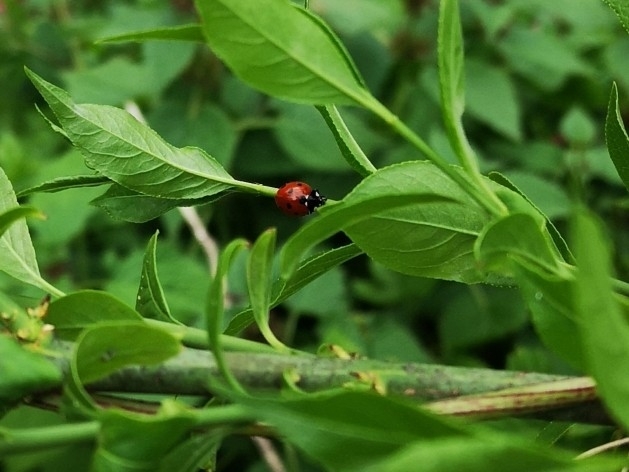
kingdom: Animalia
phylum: Arthropoda
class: Insecta
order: Coleoptera
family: Coccinellidae
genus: Coccinella
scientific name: Coccinella septempunctata
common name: Sevenspotted lady beetle
